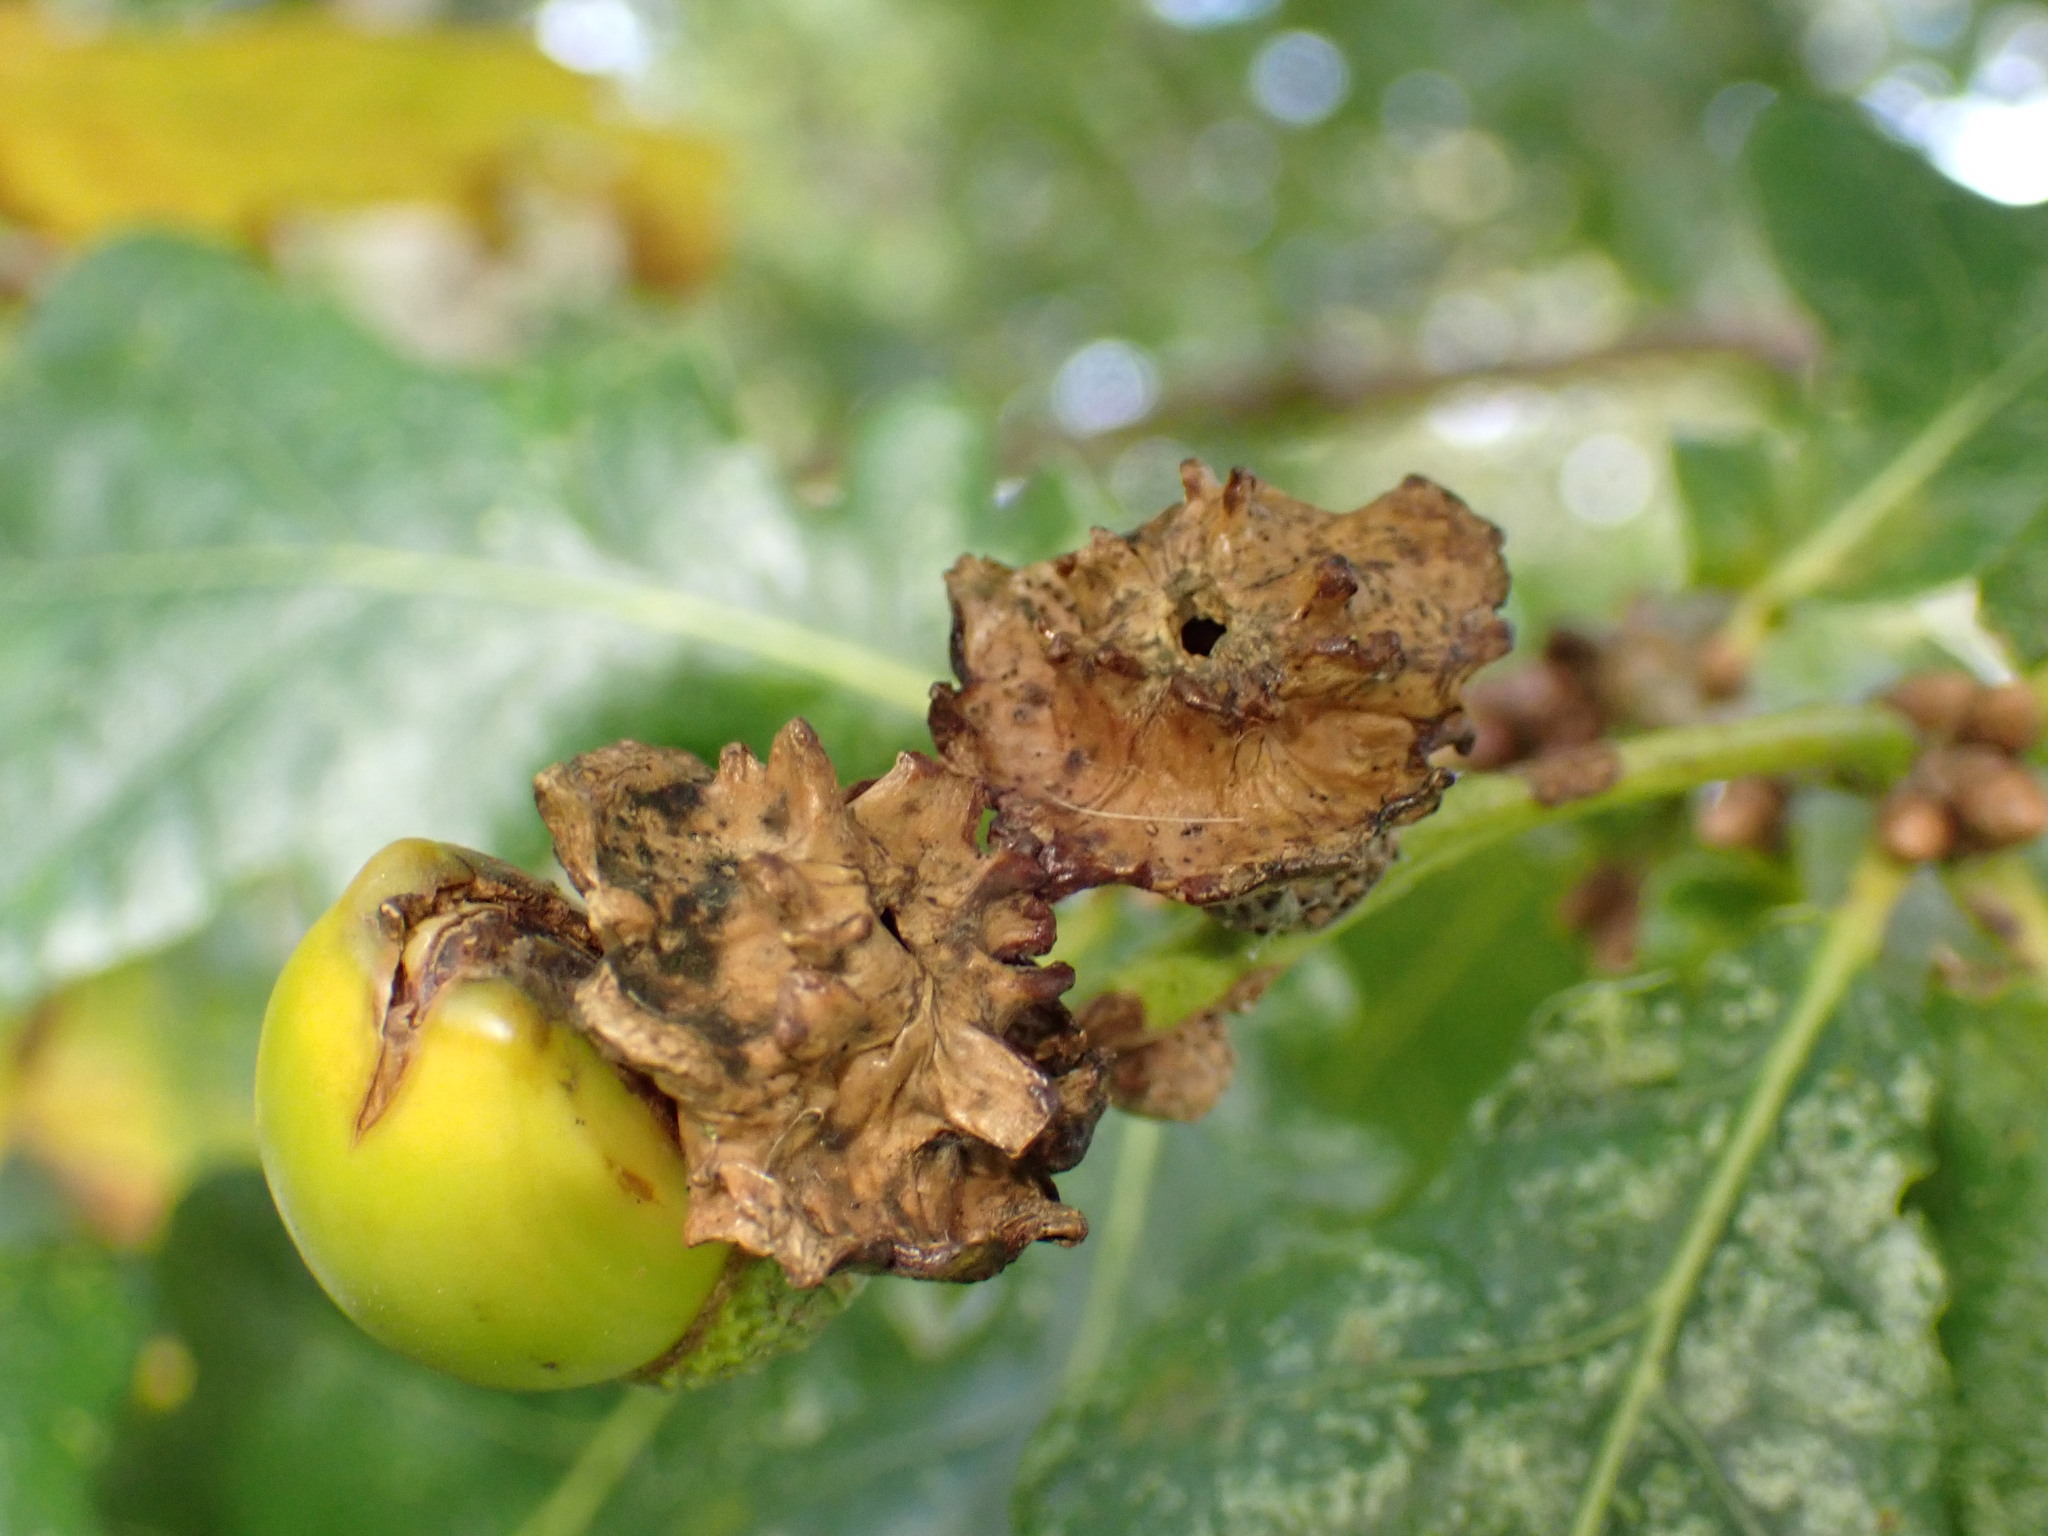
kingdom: Animalia
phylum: Arthropoda
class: Insecta
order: Hymenoptera
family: Cynipidae
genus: Andricus
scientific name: Andricus quercuscalicis
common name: Knopper gall
